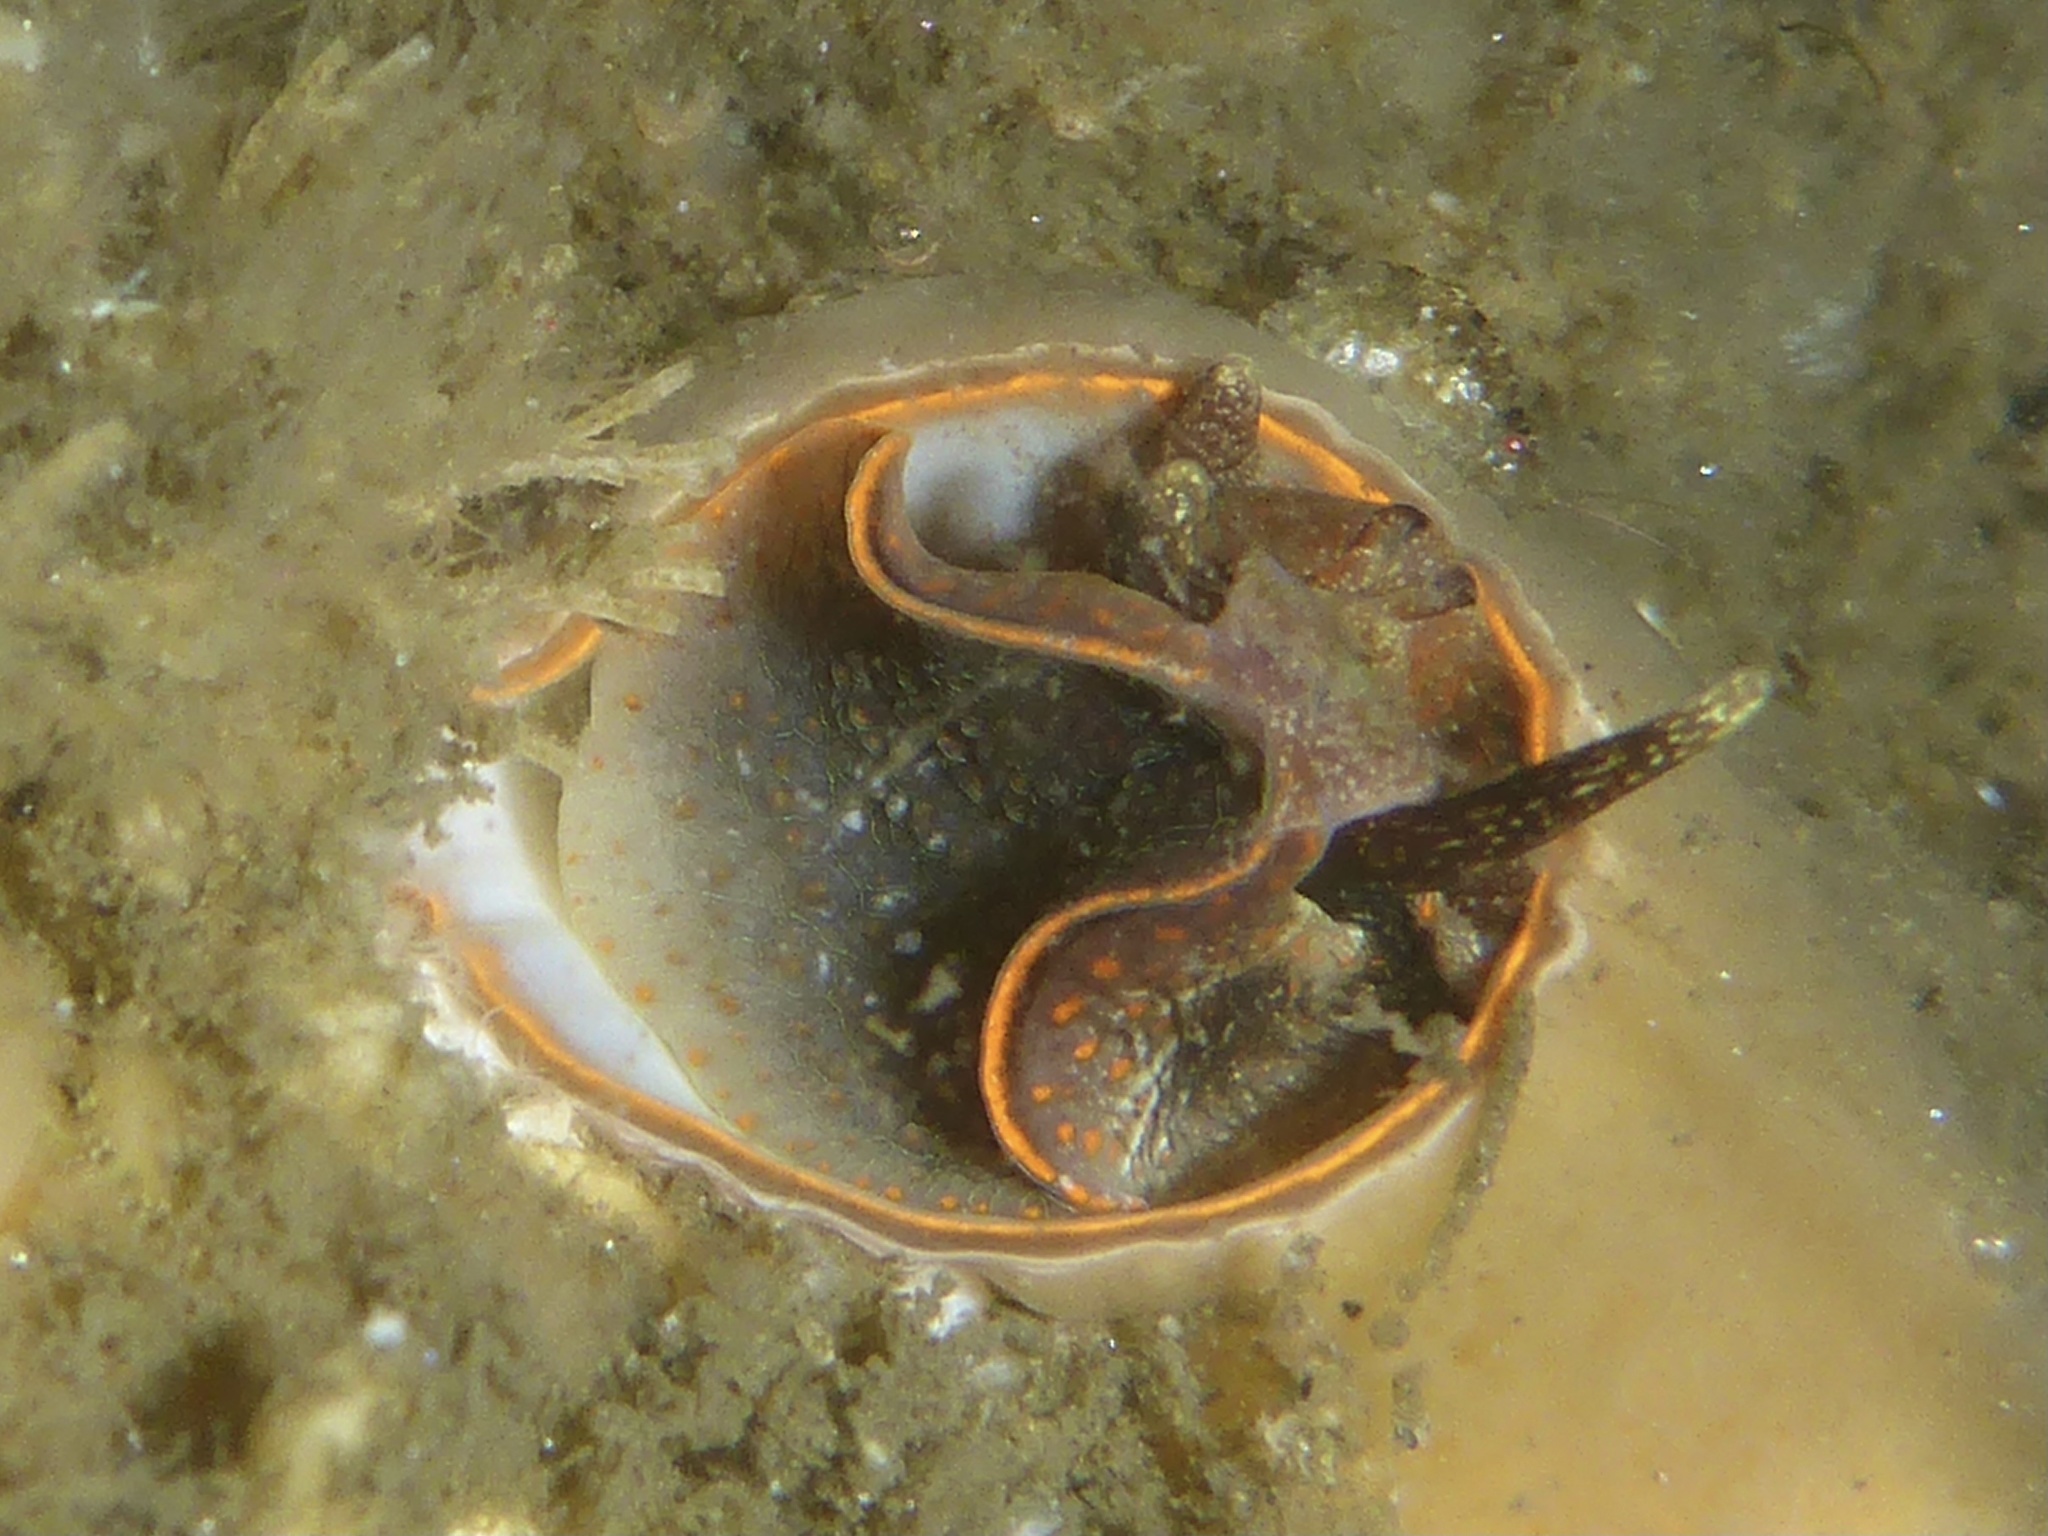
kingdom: Animalia
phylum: Mollusca
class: Gastropoda
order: Littorinimorpha
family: Vermetidae
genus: Thylacodes
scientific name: Thylacodes squamigerus
